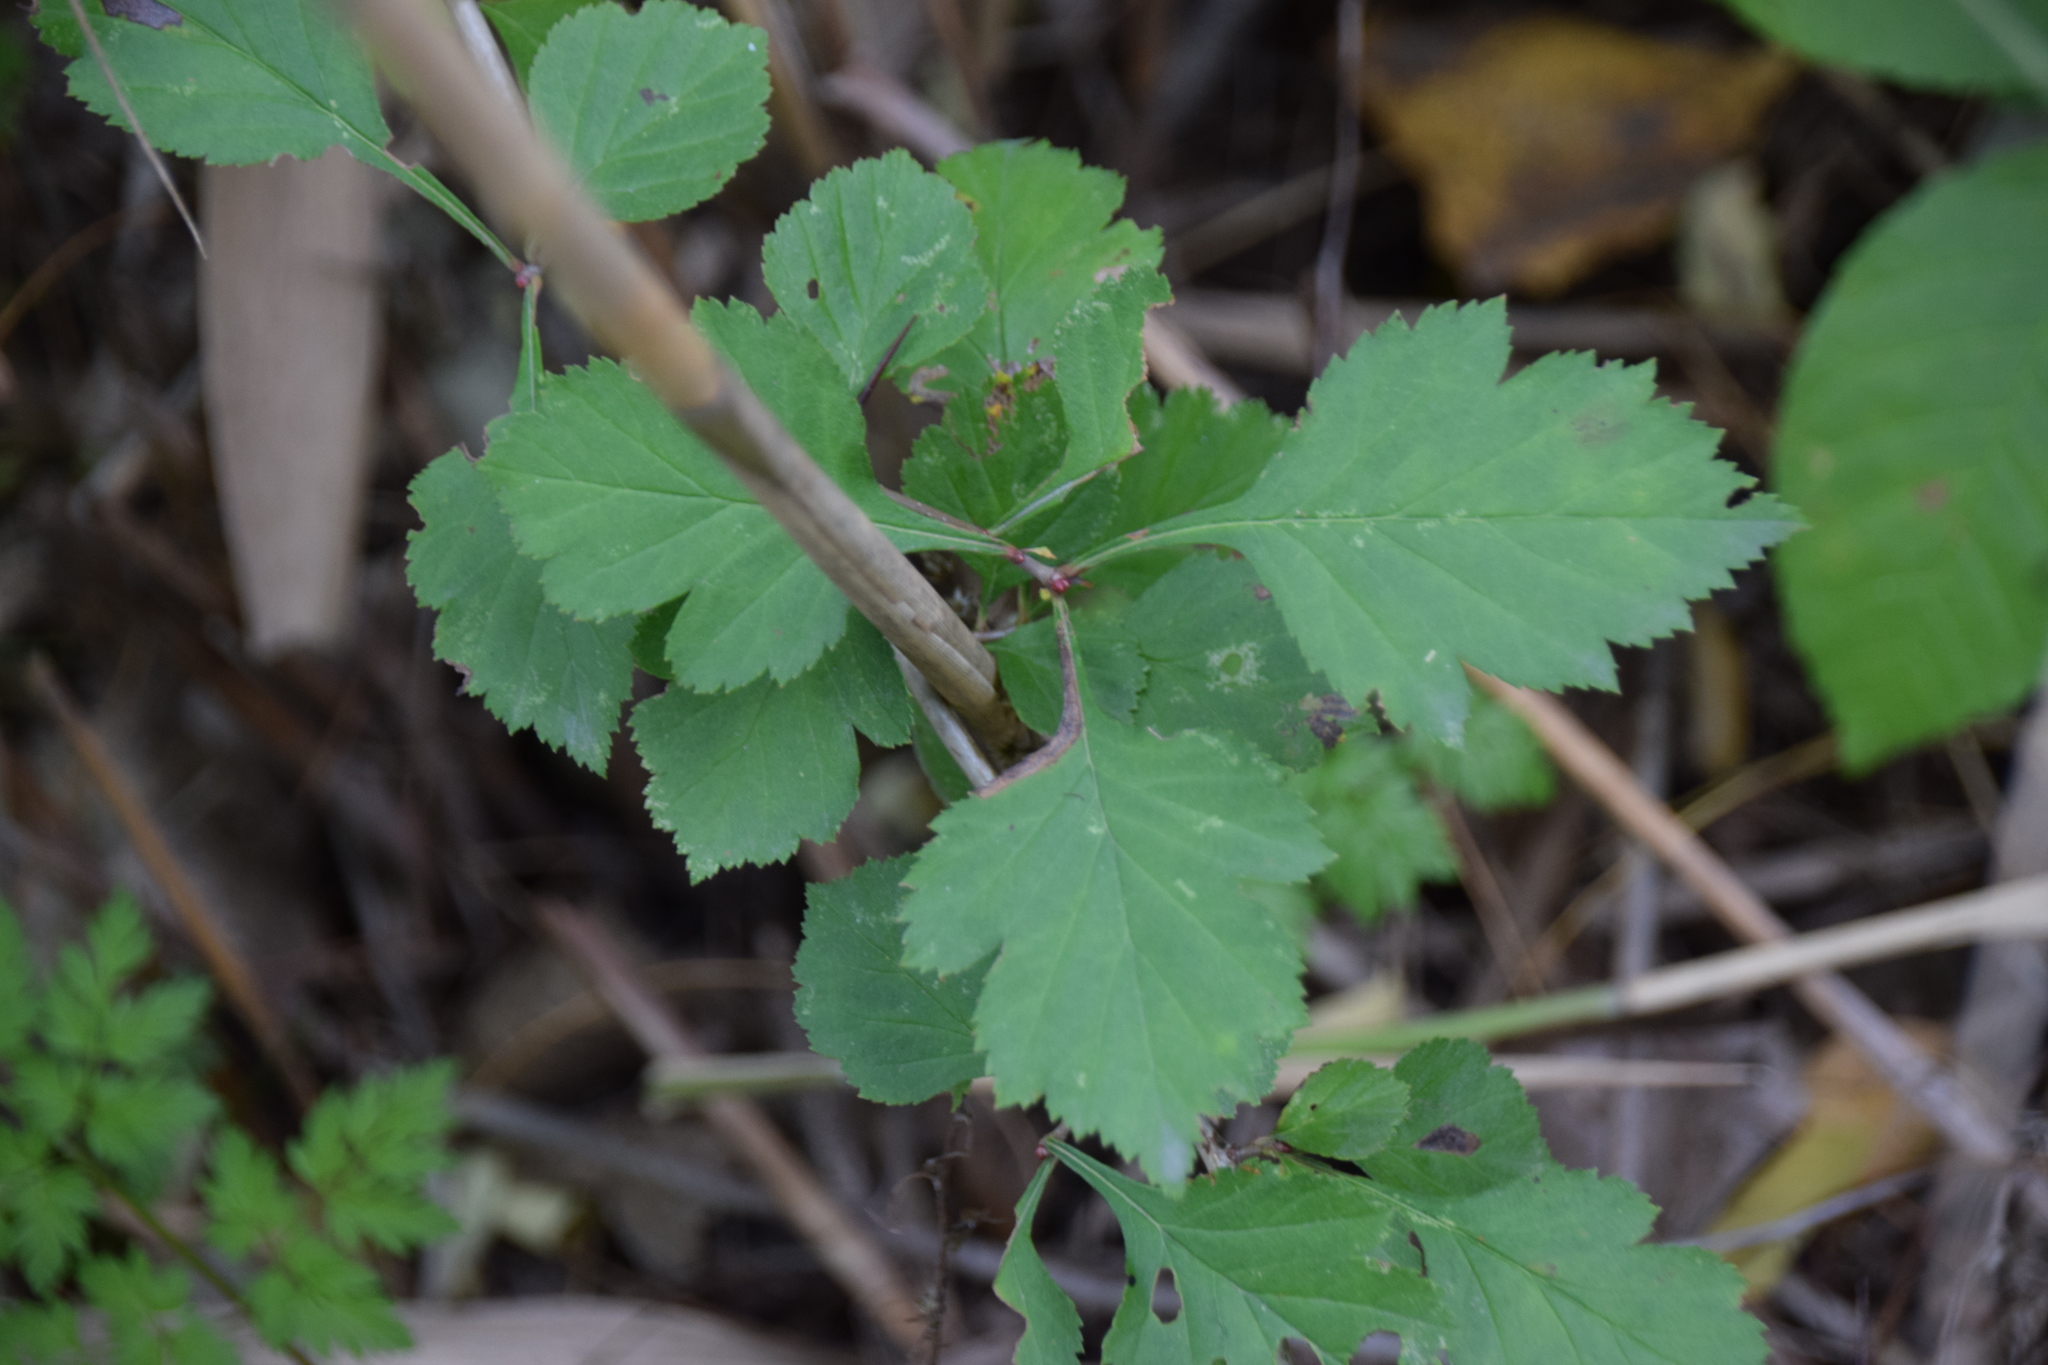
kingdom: Plantae
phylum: Tracheophyta
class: Magnoliopsida
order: Rosales
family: Rosaceae
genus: Crataegus
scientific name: Crataegus
